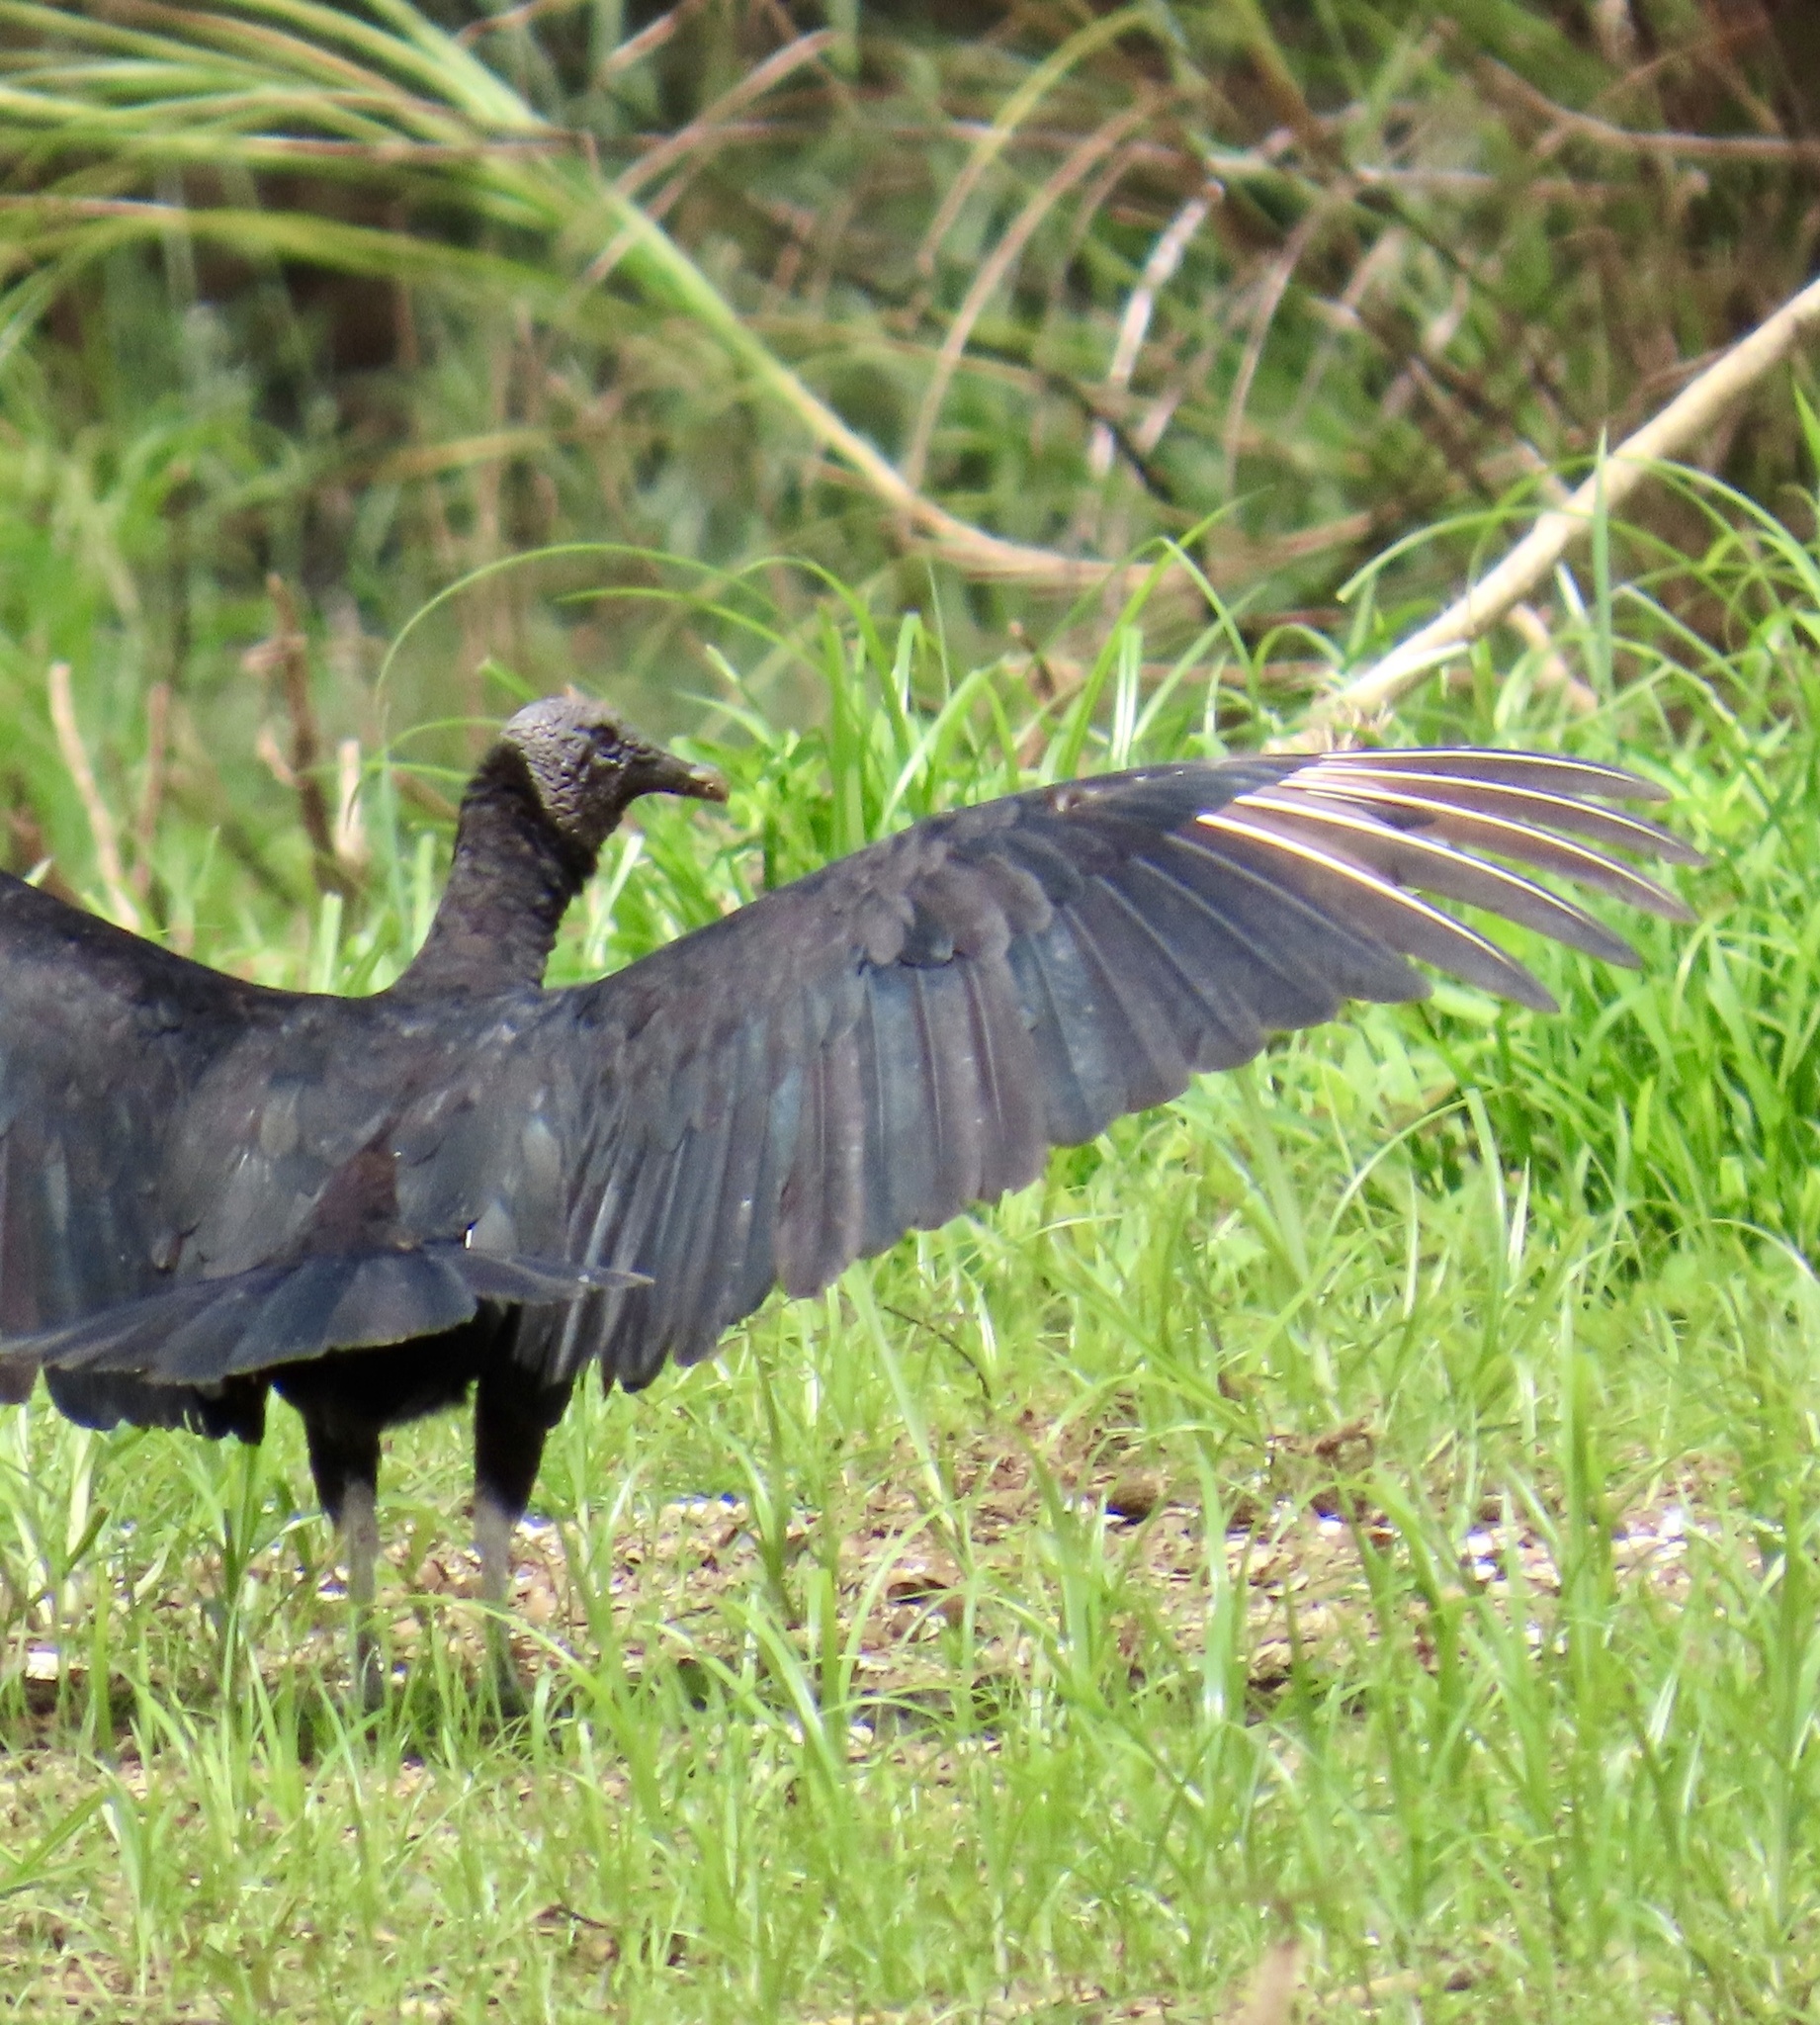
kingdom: Animalia
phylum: Chordata
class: Aves
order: Accipitriformes
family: Cathartidae
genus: Coragyps
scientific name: Coragyps atratus
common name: Black vulture
